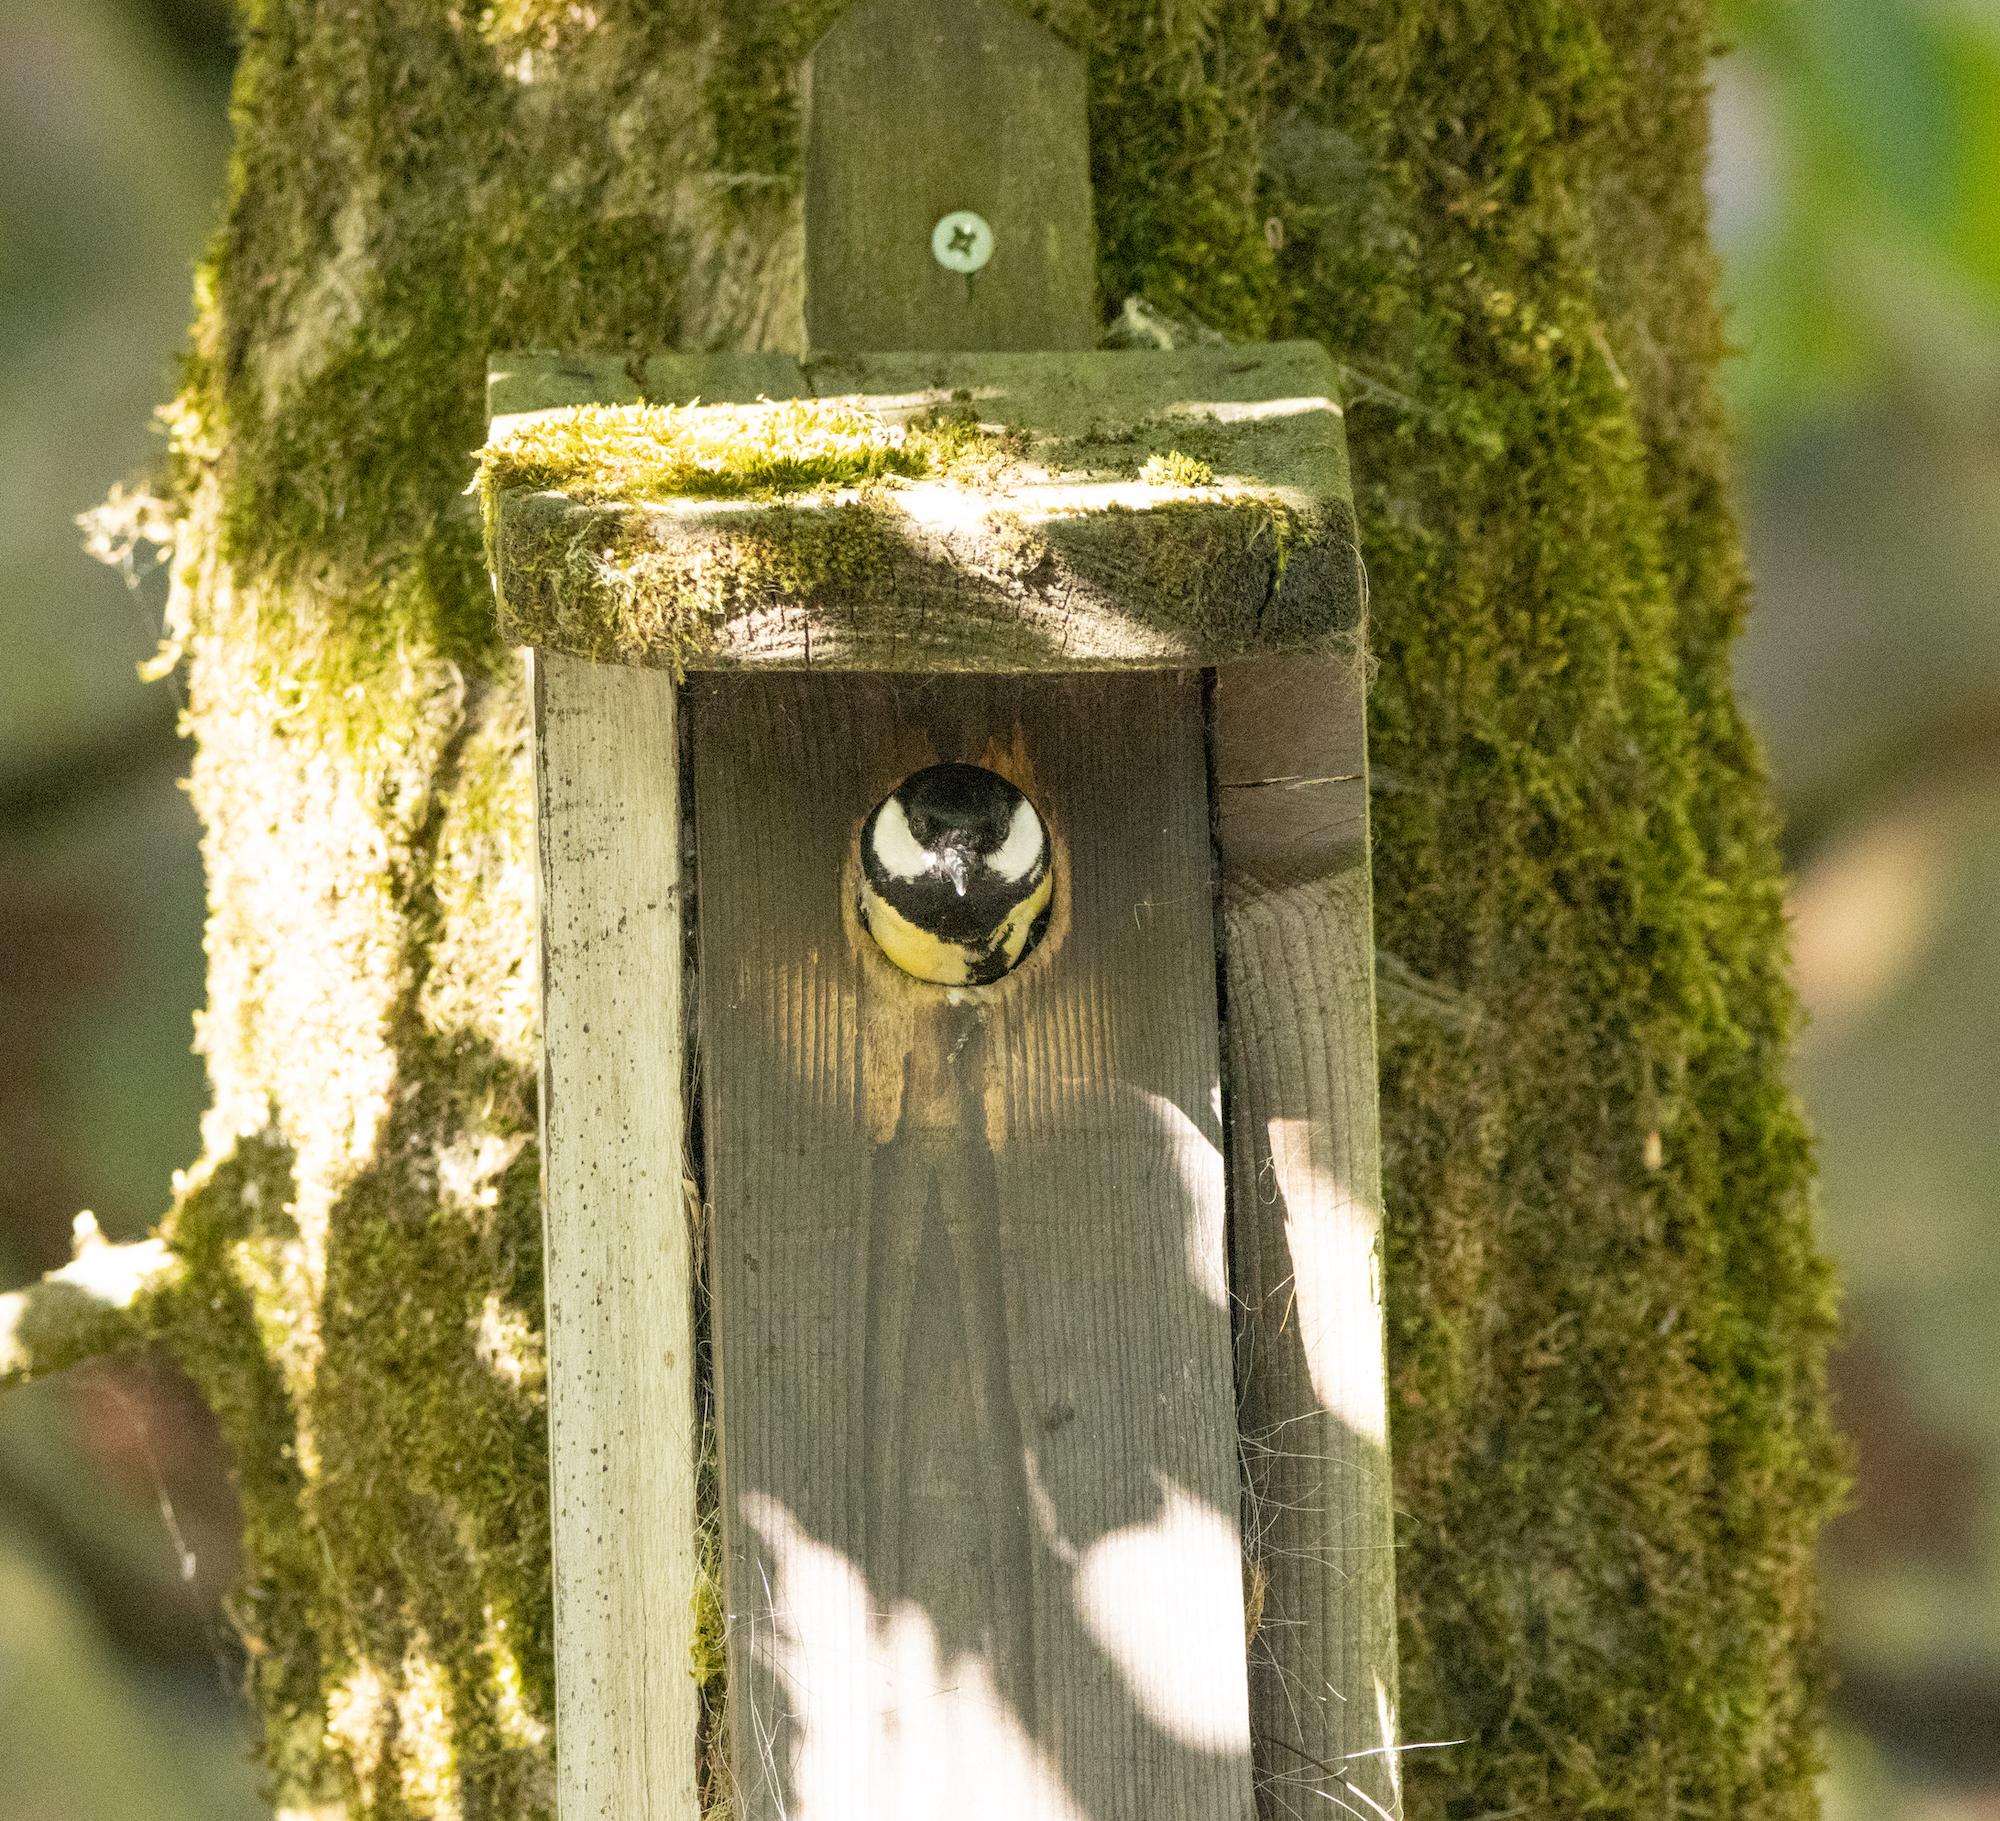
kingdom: Animalia
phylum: Chordata
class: Aves
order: Passeriformes
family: Paridae
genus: Parus
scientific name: Parus major
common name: Great tit
